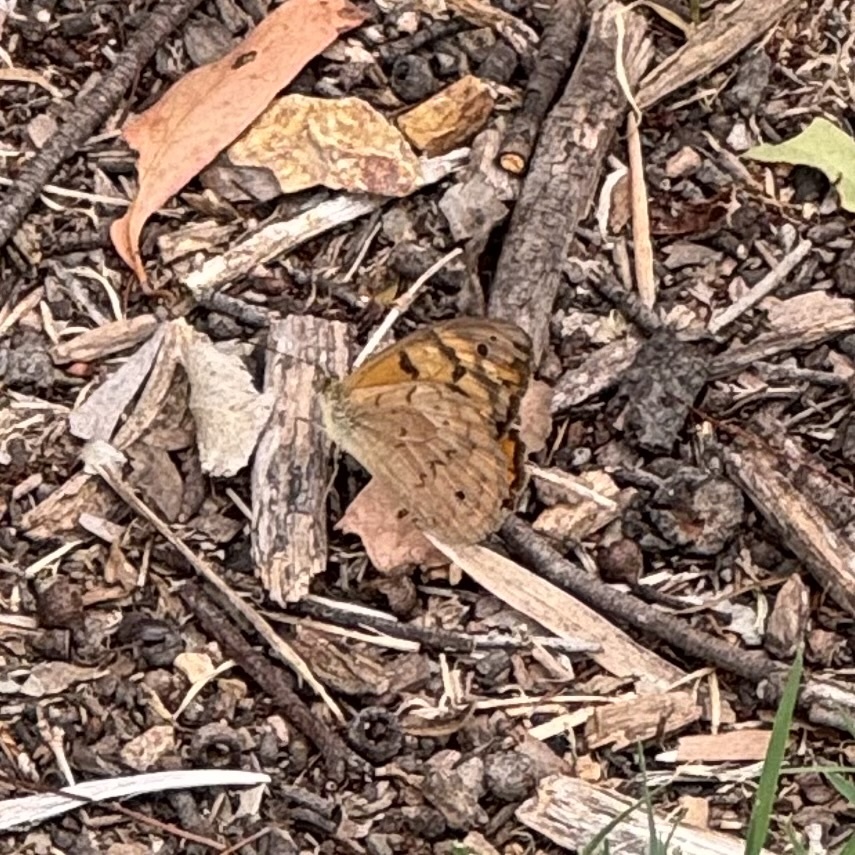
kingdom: Animalia
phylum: Arthropoda
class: Insecta
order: Lepidoptera
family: Nymphalidae
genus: Heteronympha
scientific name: Heteronympha merope
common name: Common brown
